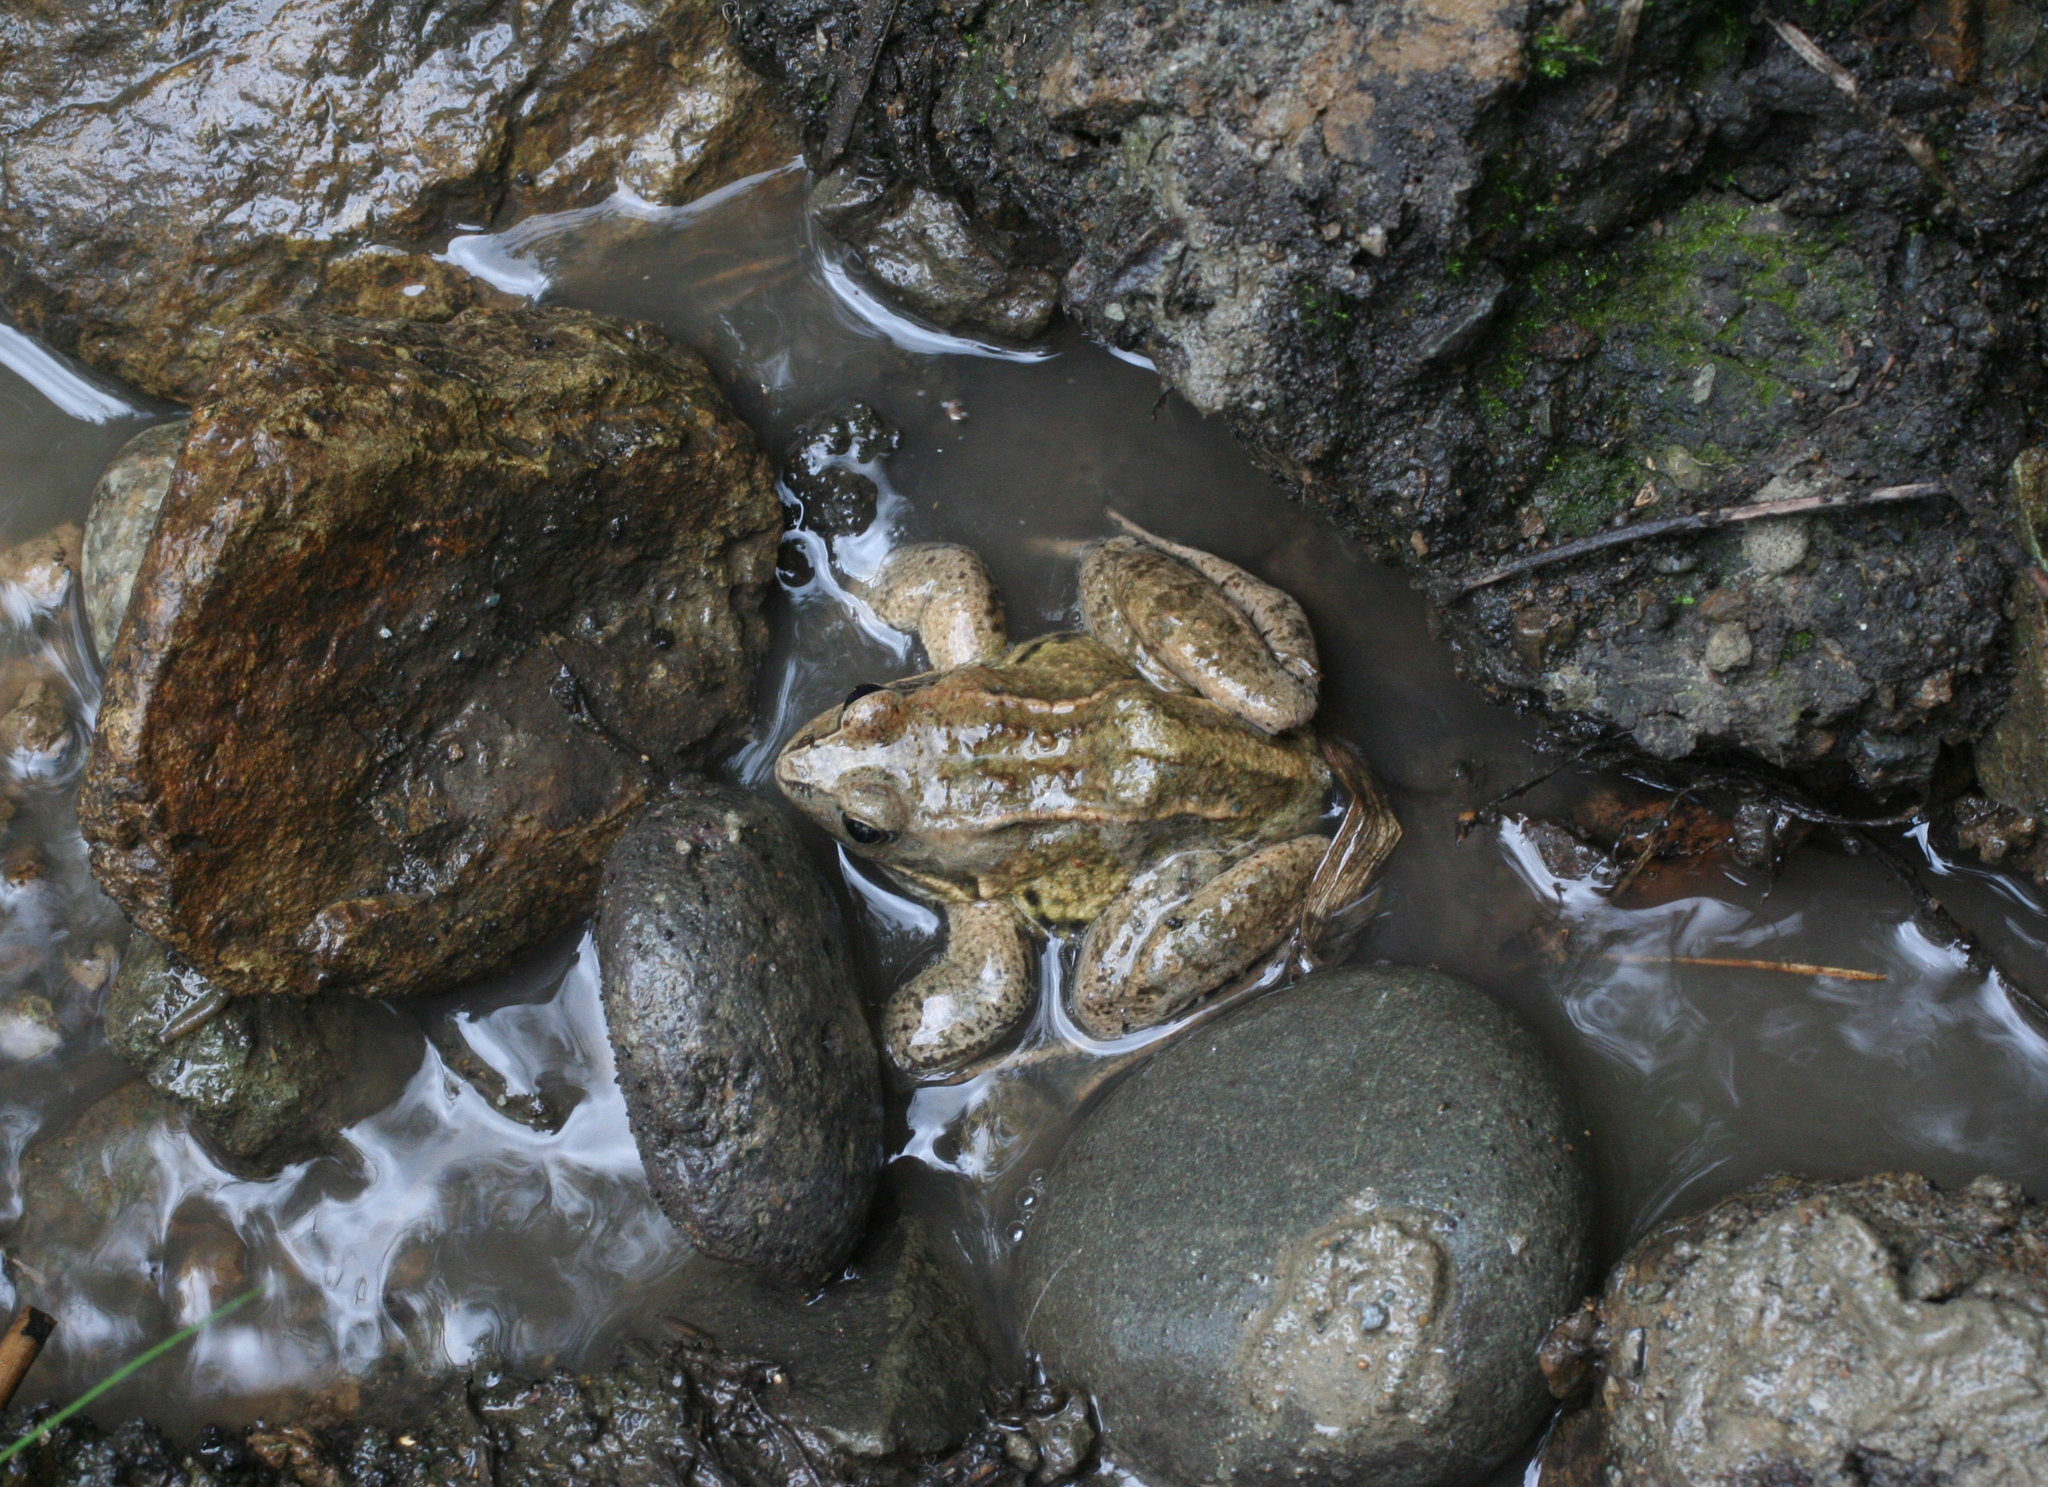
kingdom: Animalia
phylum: Chordata
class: Amphibia
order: Anura
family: Ranidae
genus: Rana
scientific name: Rana arvalis
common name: Moor frog
